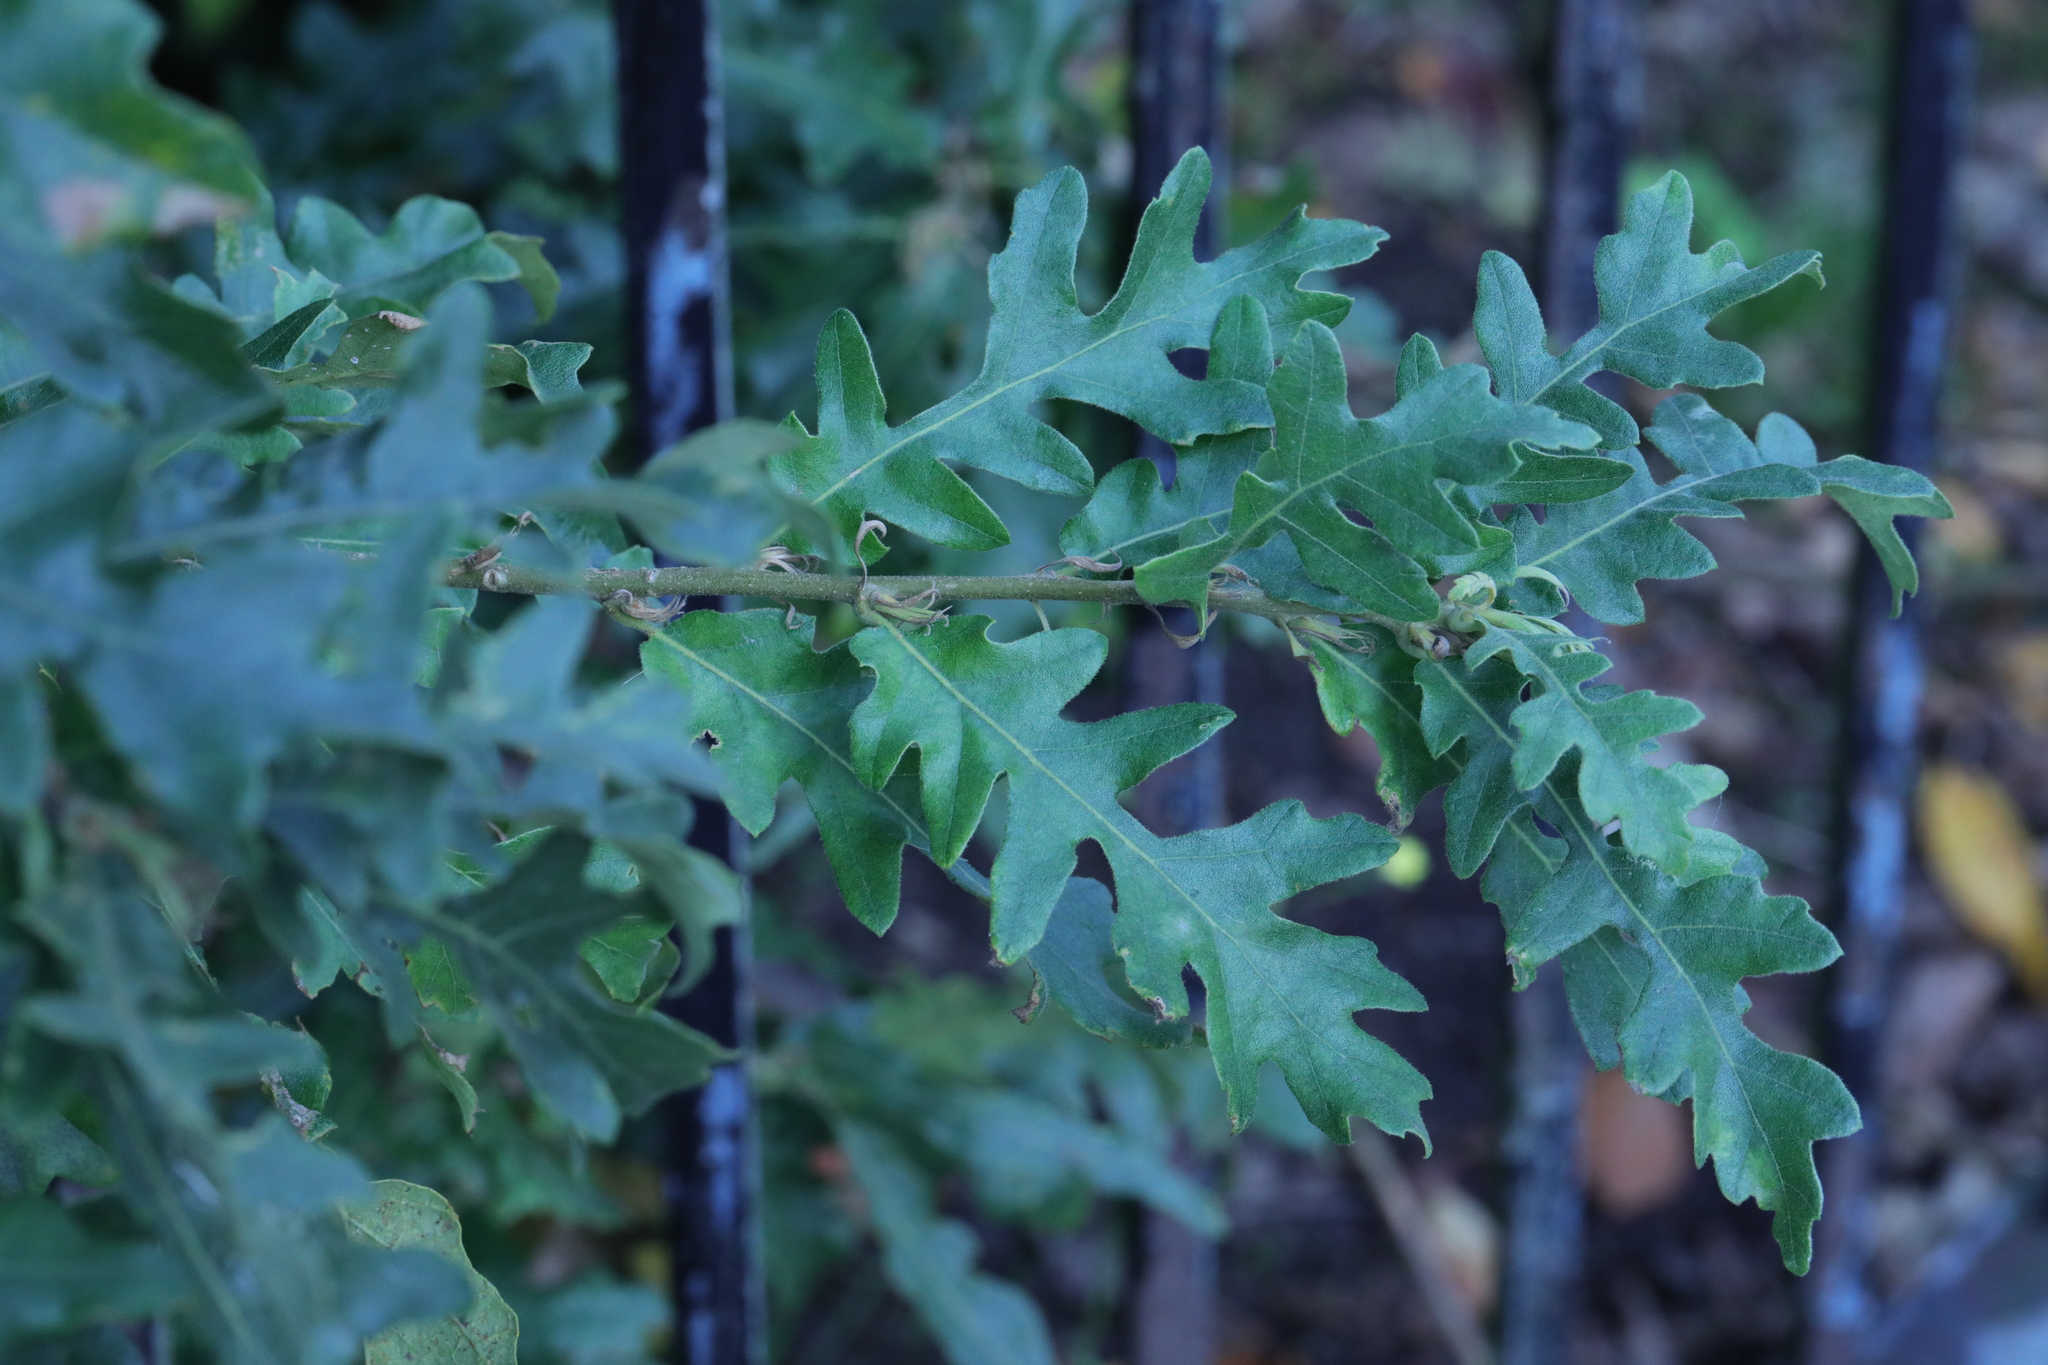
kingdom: Plantae
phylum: Tracheophyta
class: Magnoliopsida
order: Fagales
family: Fagaceae
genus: Quercus
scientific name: Quercus cerris
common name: Turkey oak
